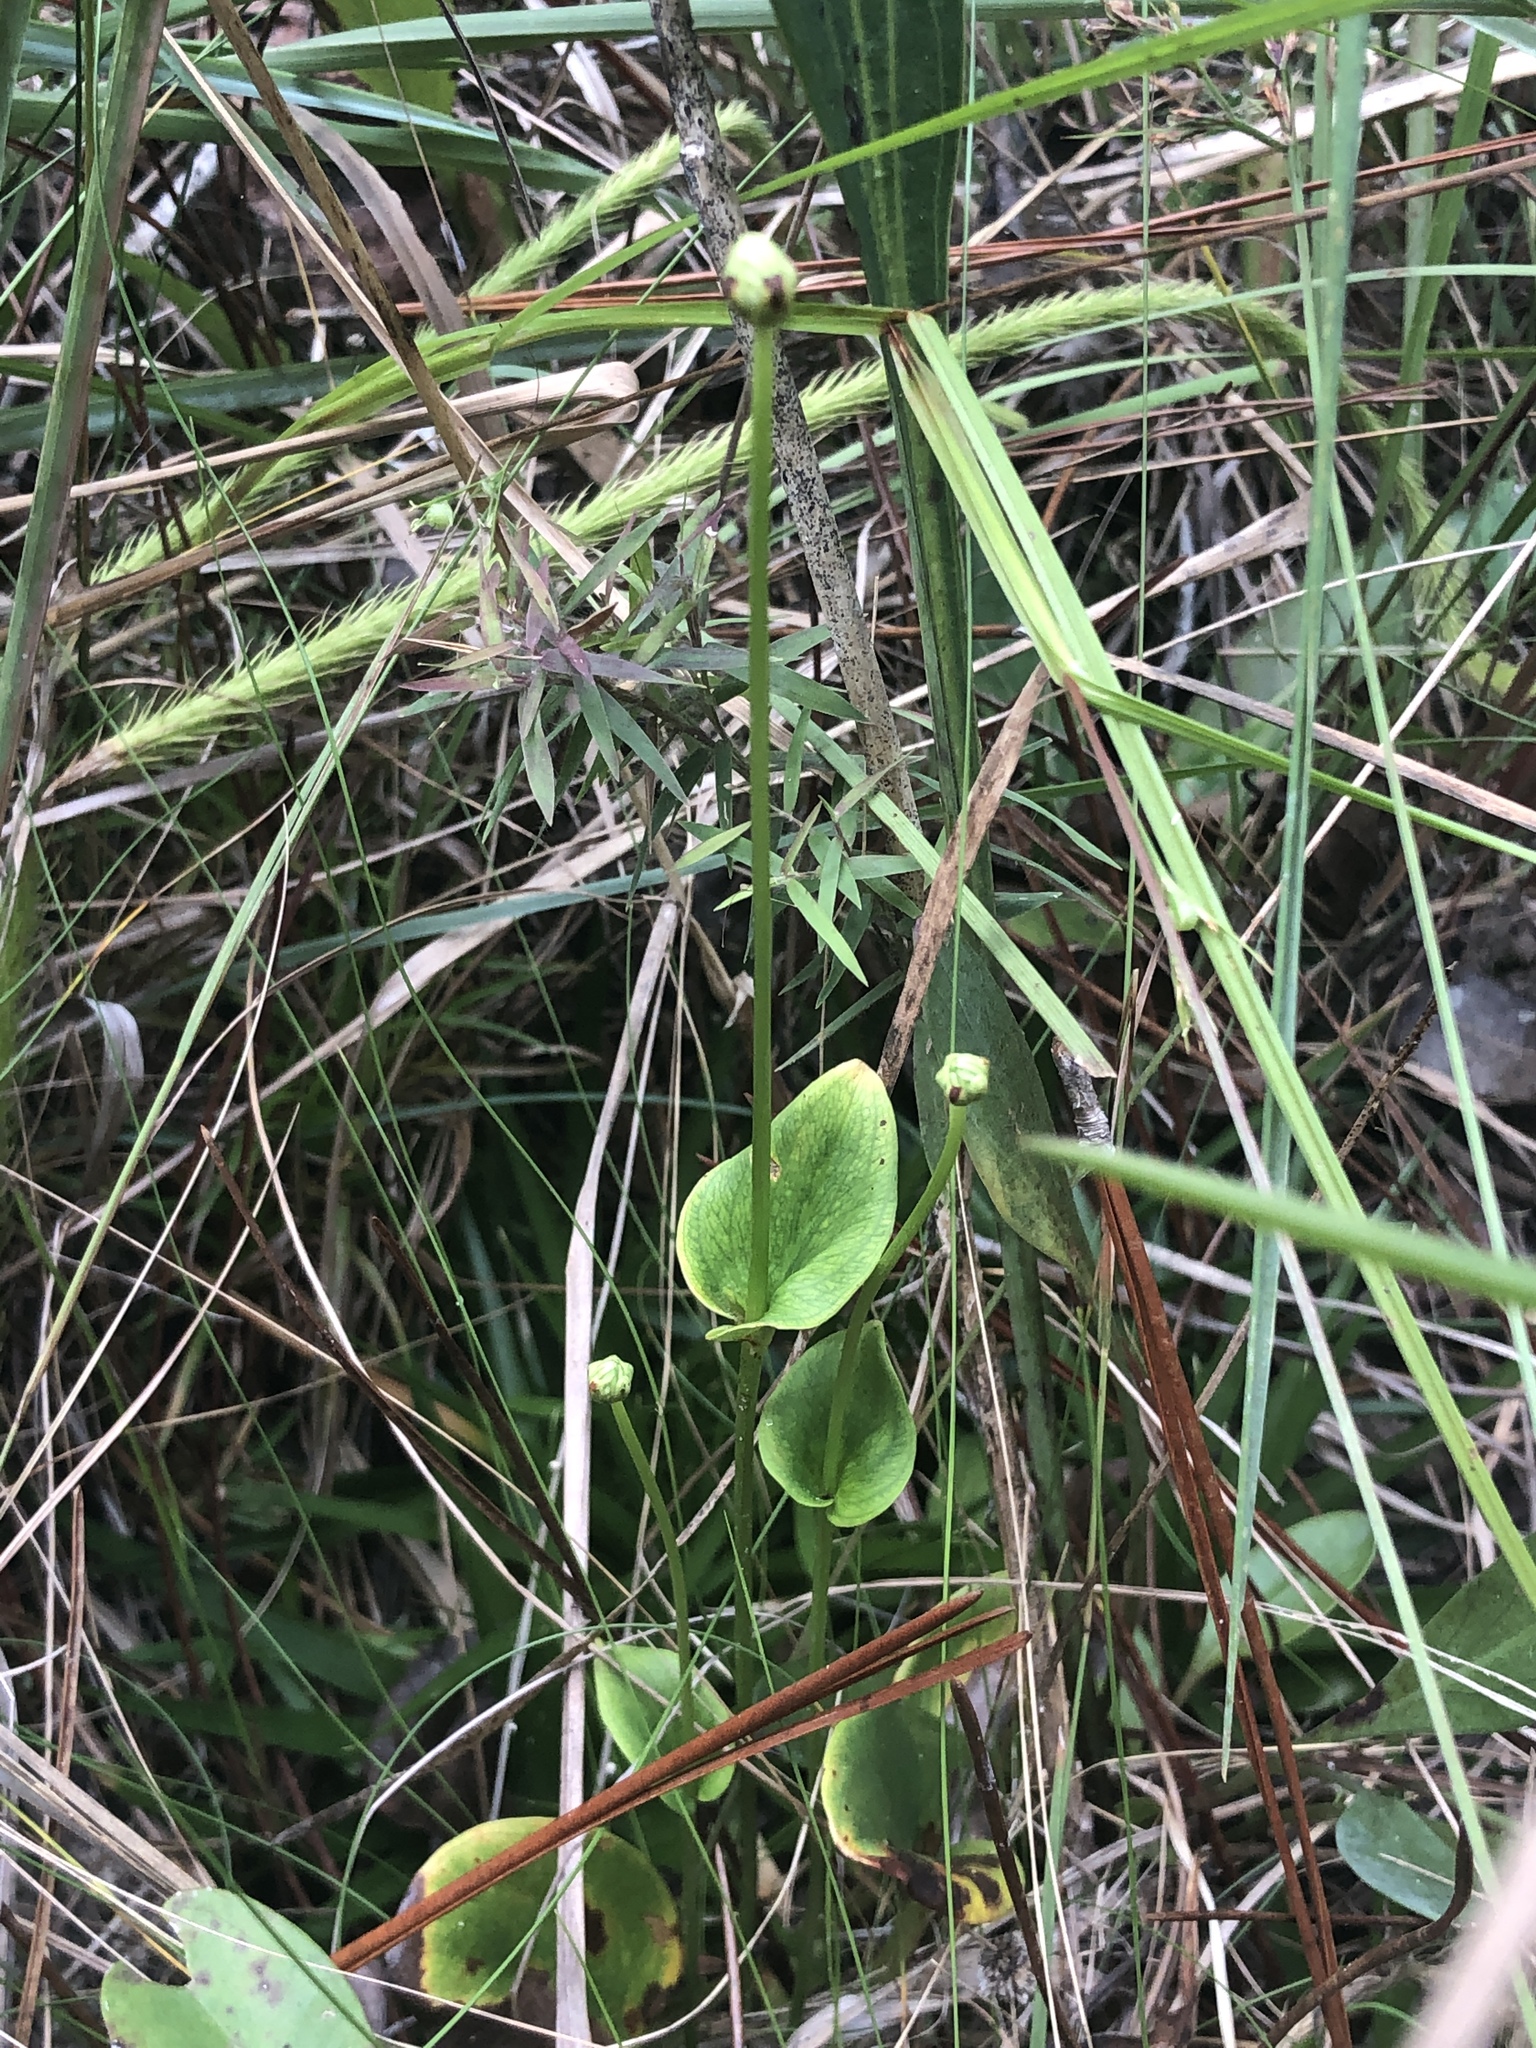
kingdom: Plantae
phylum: Tracheophyta
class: Magnoliopsida
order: Celastrales
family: Parnassiaceae
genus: Parnassia
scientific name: Parnassia grandifolia
